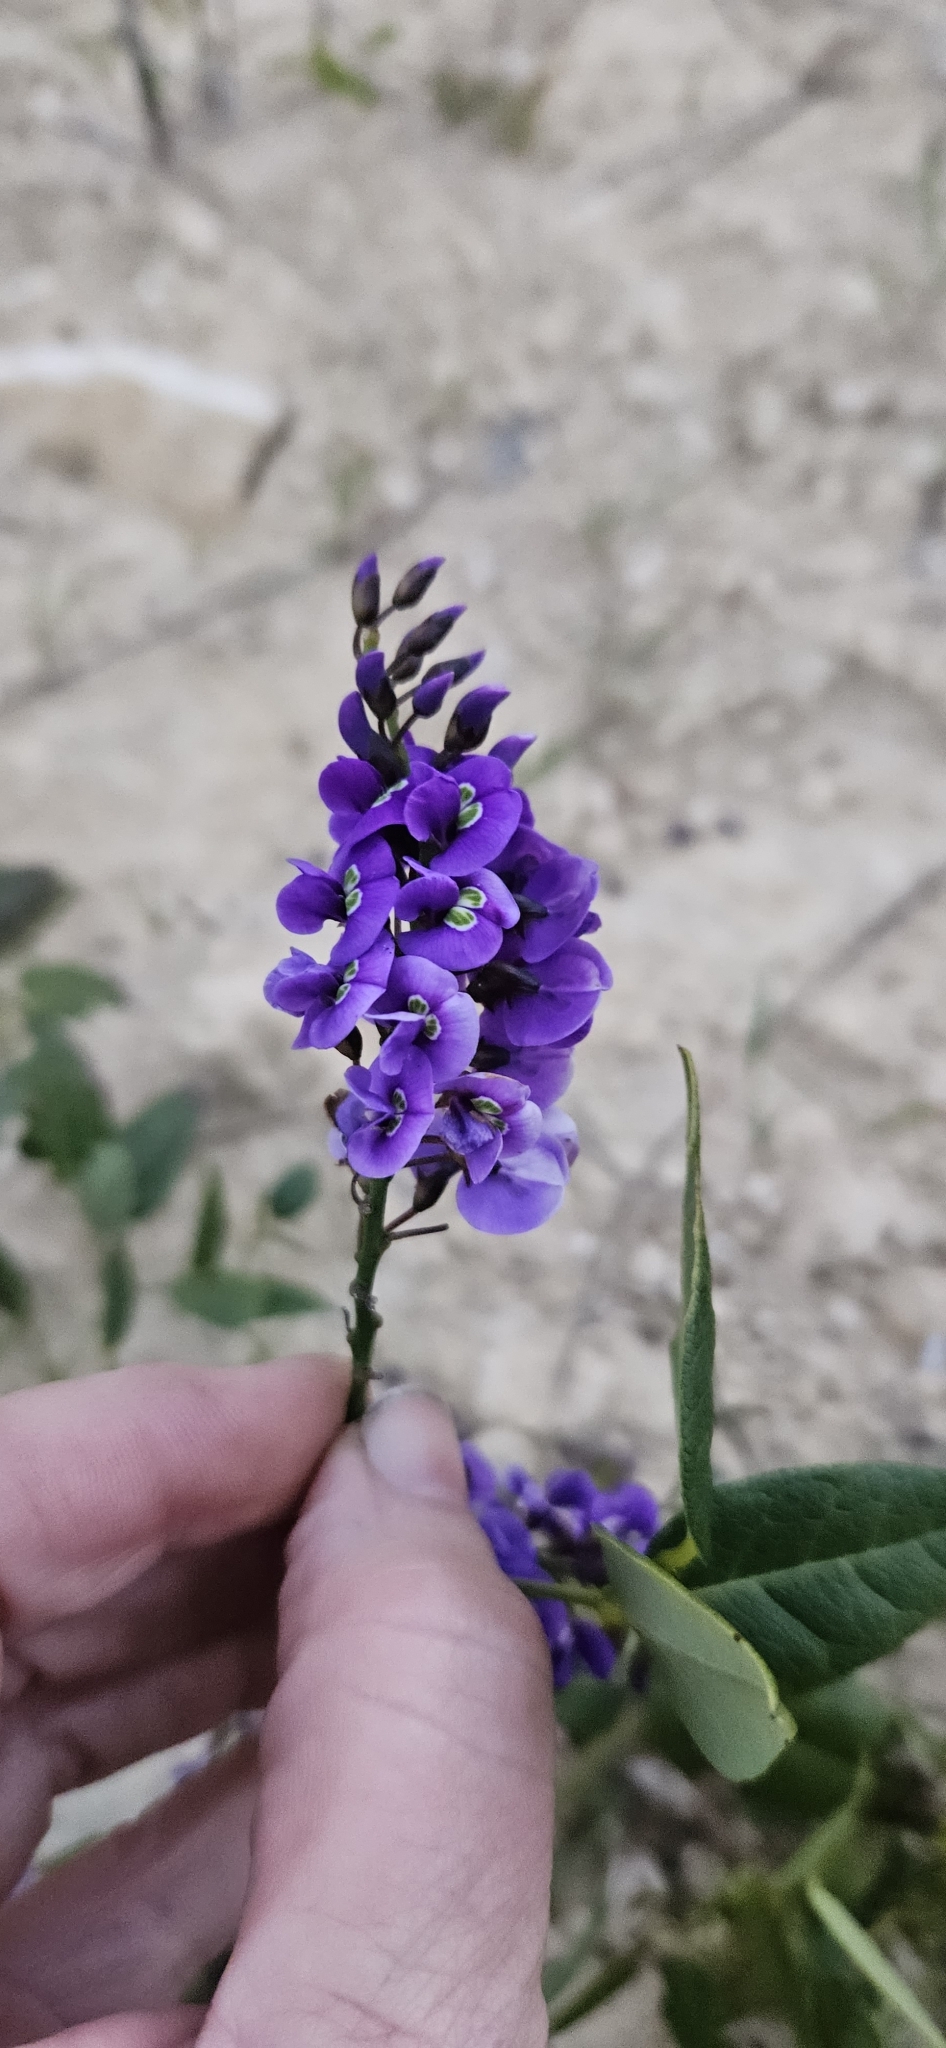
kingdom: Plantae
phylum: Tracheophyta
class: Magnoliopsida
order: Fabales
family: Fabaceae
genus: Hardenbergia
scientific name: Hardenbergia comptoniana
